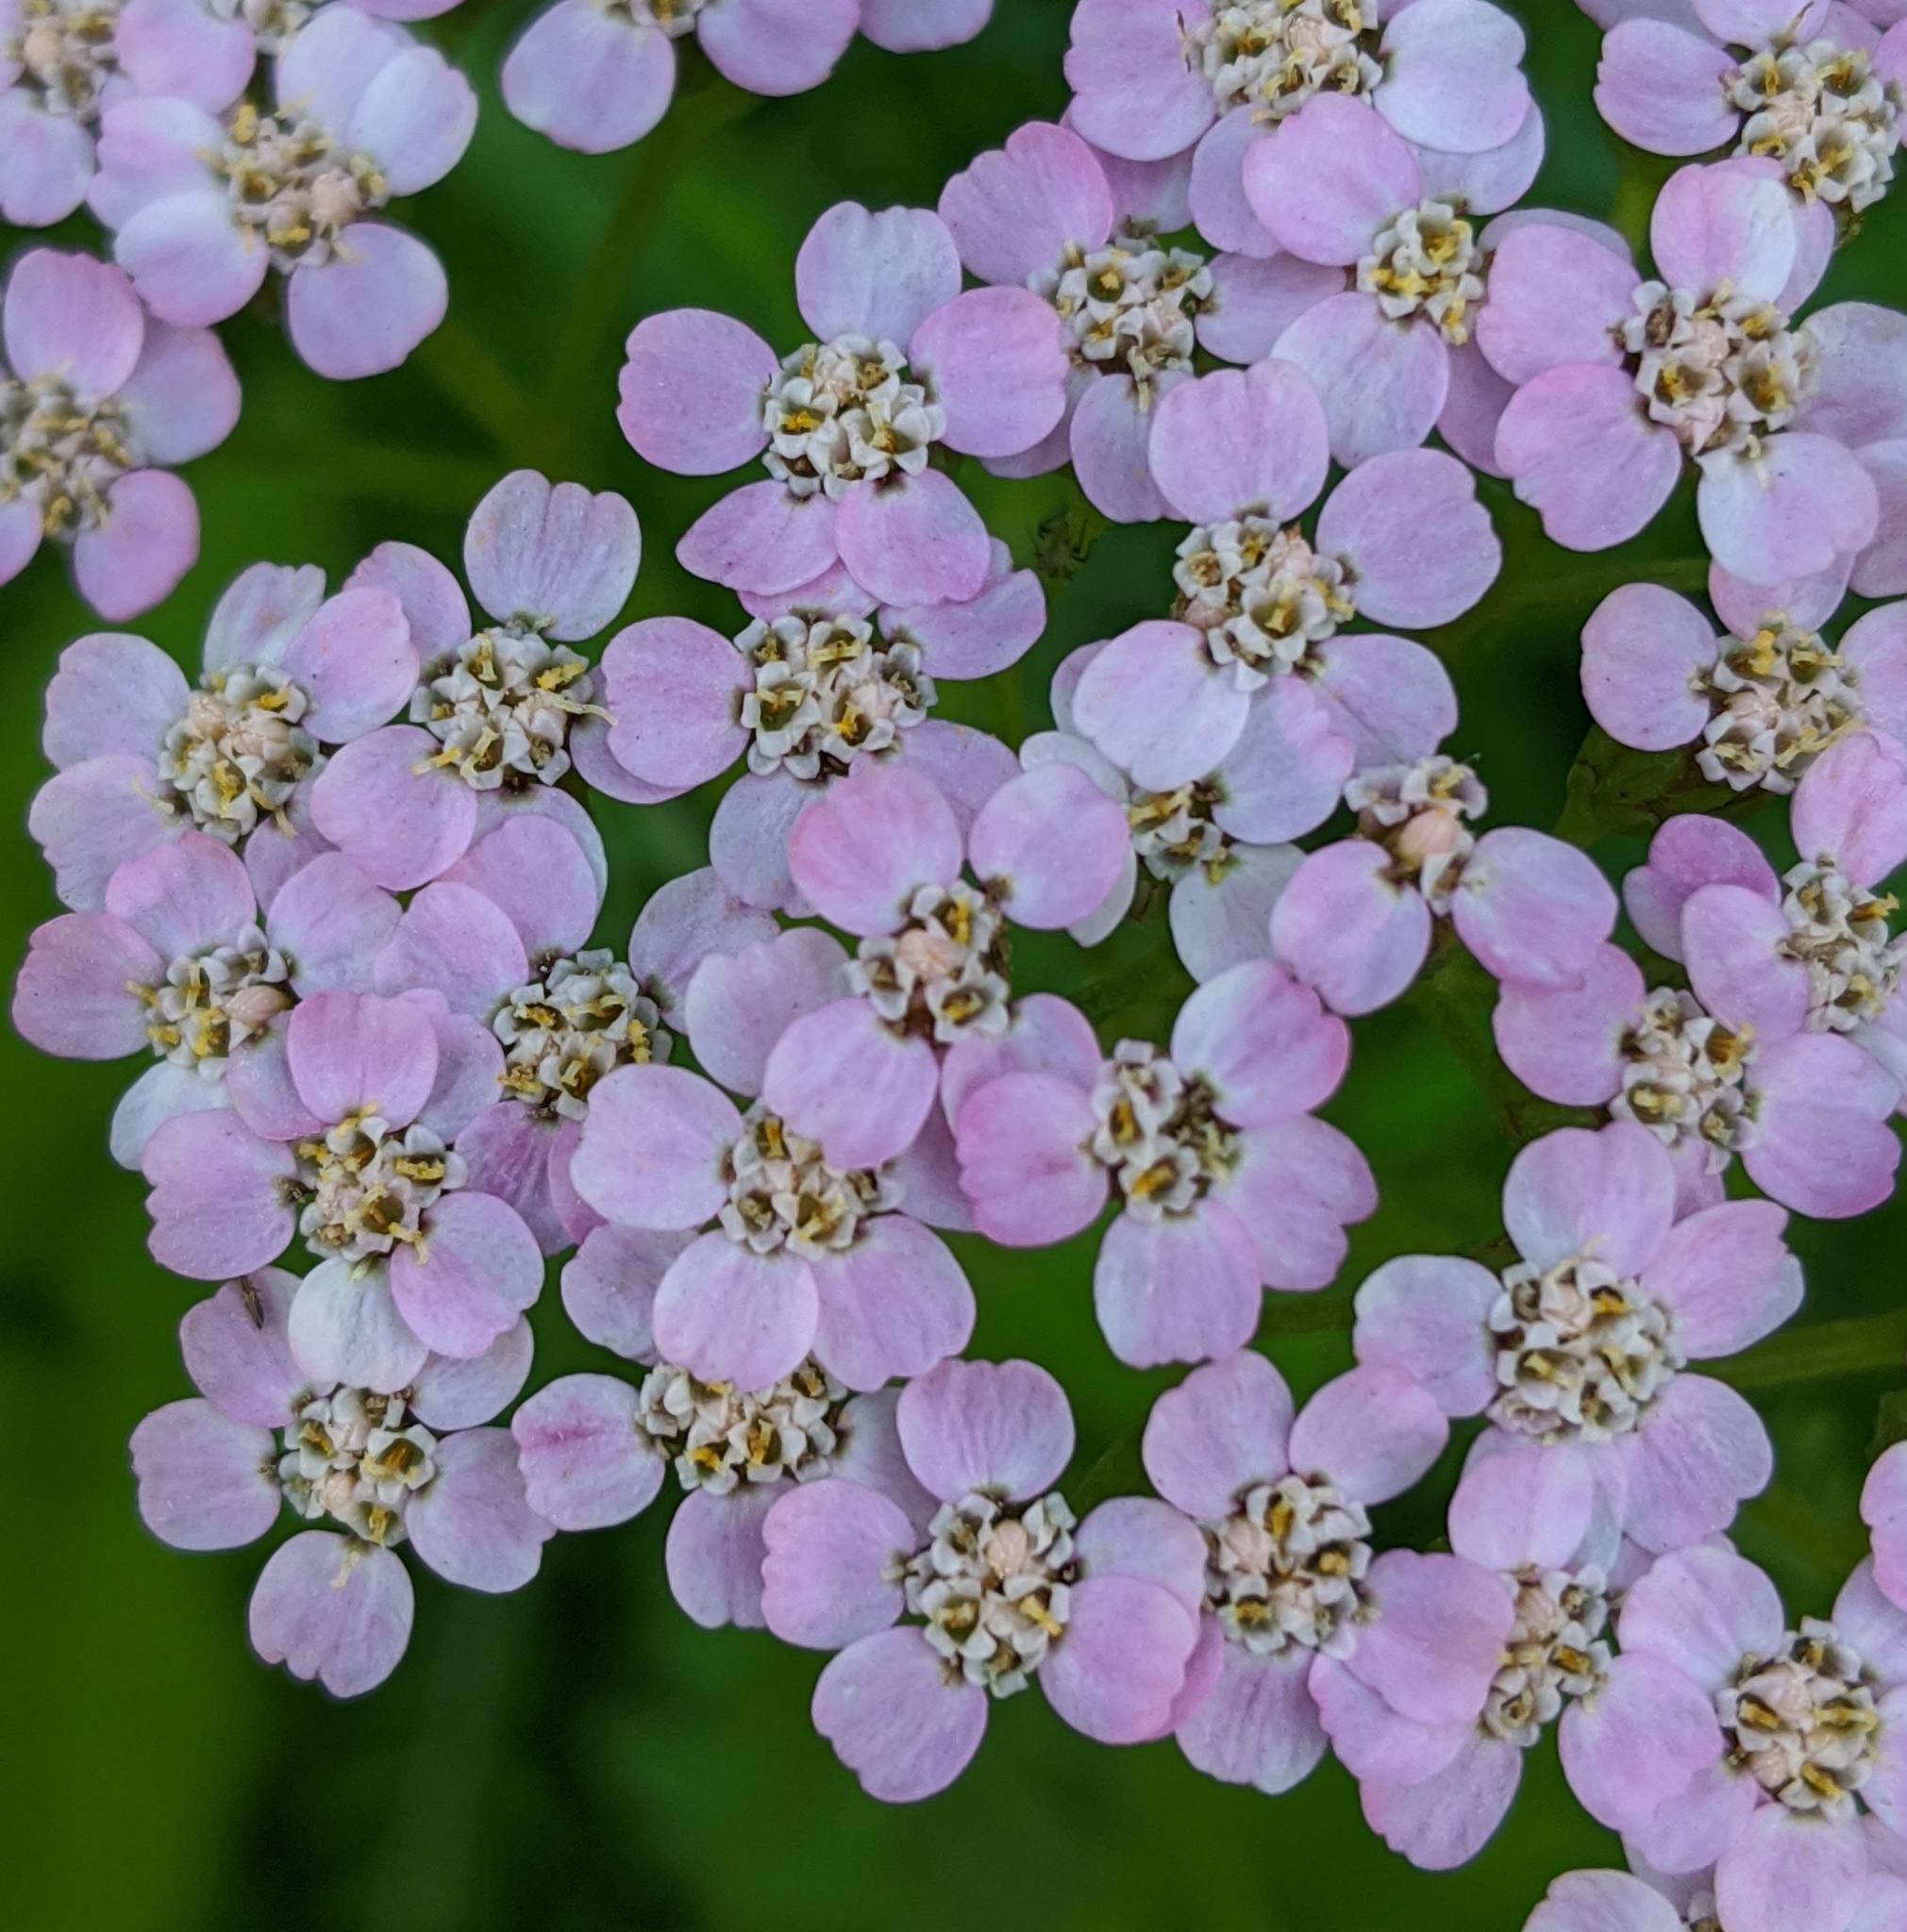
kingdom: Plantae
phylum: Tracheophyta
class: Magnoliopsida
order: Asterales
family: Asteraceae
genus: Achillea
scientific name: Achillea millefolium
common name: Yarrow
